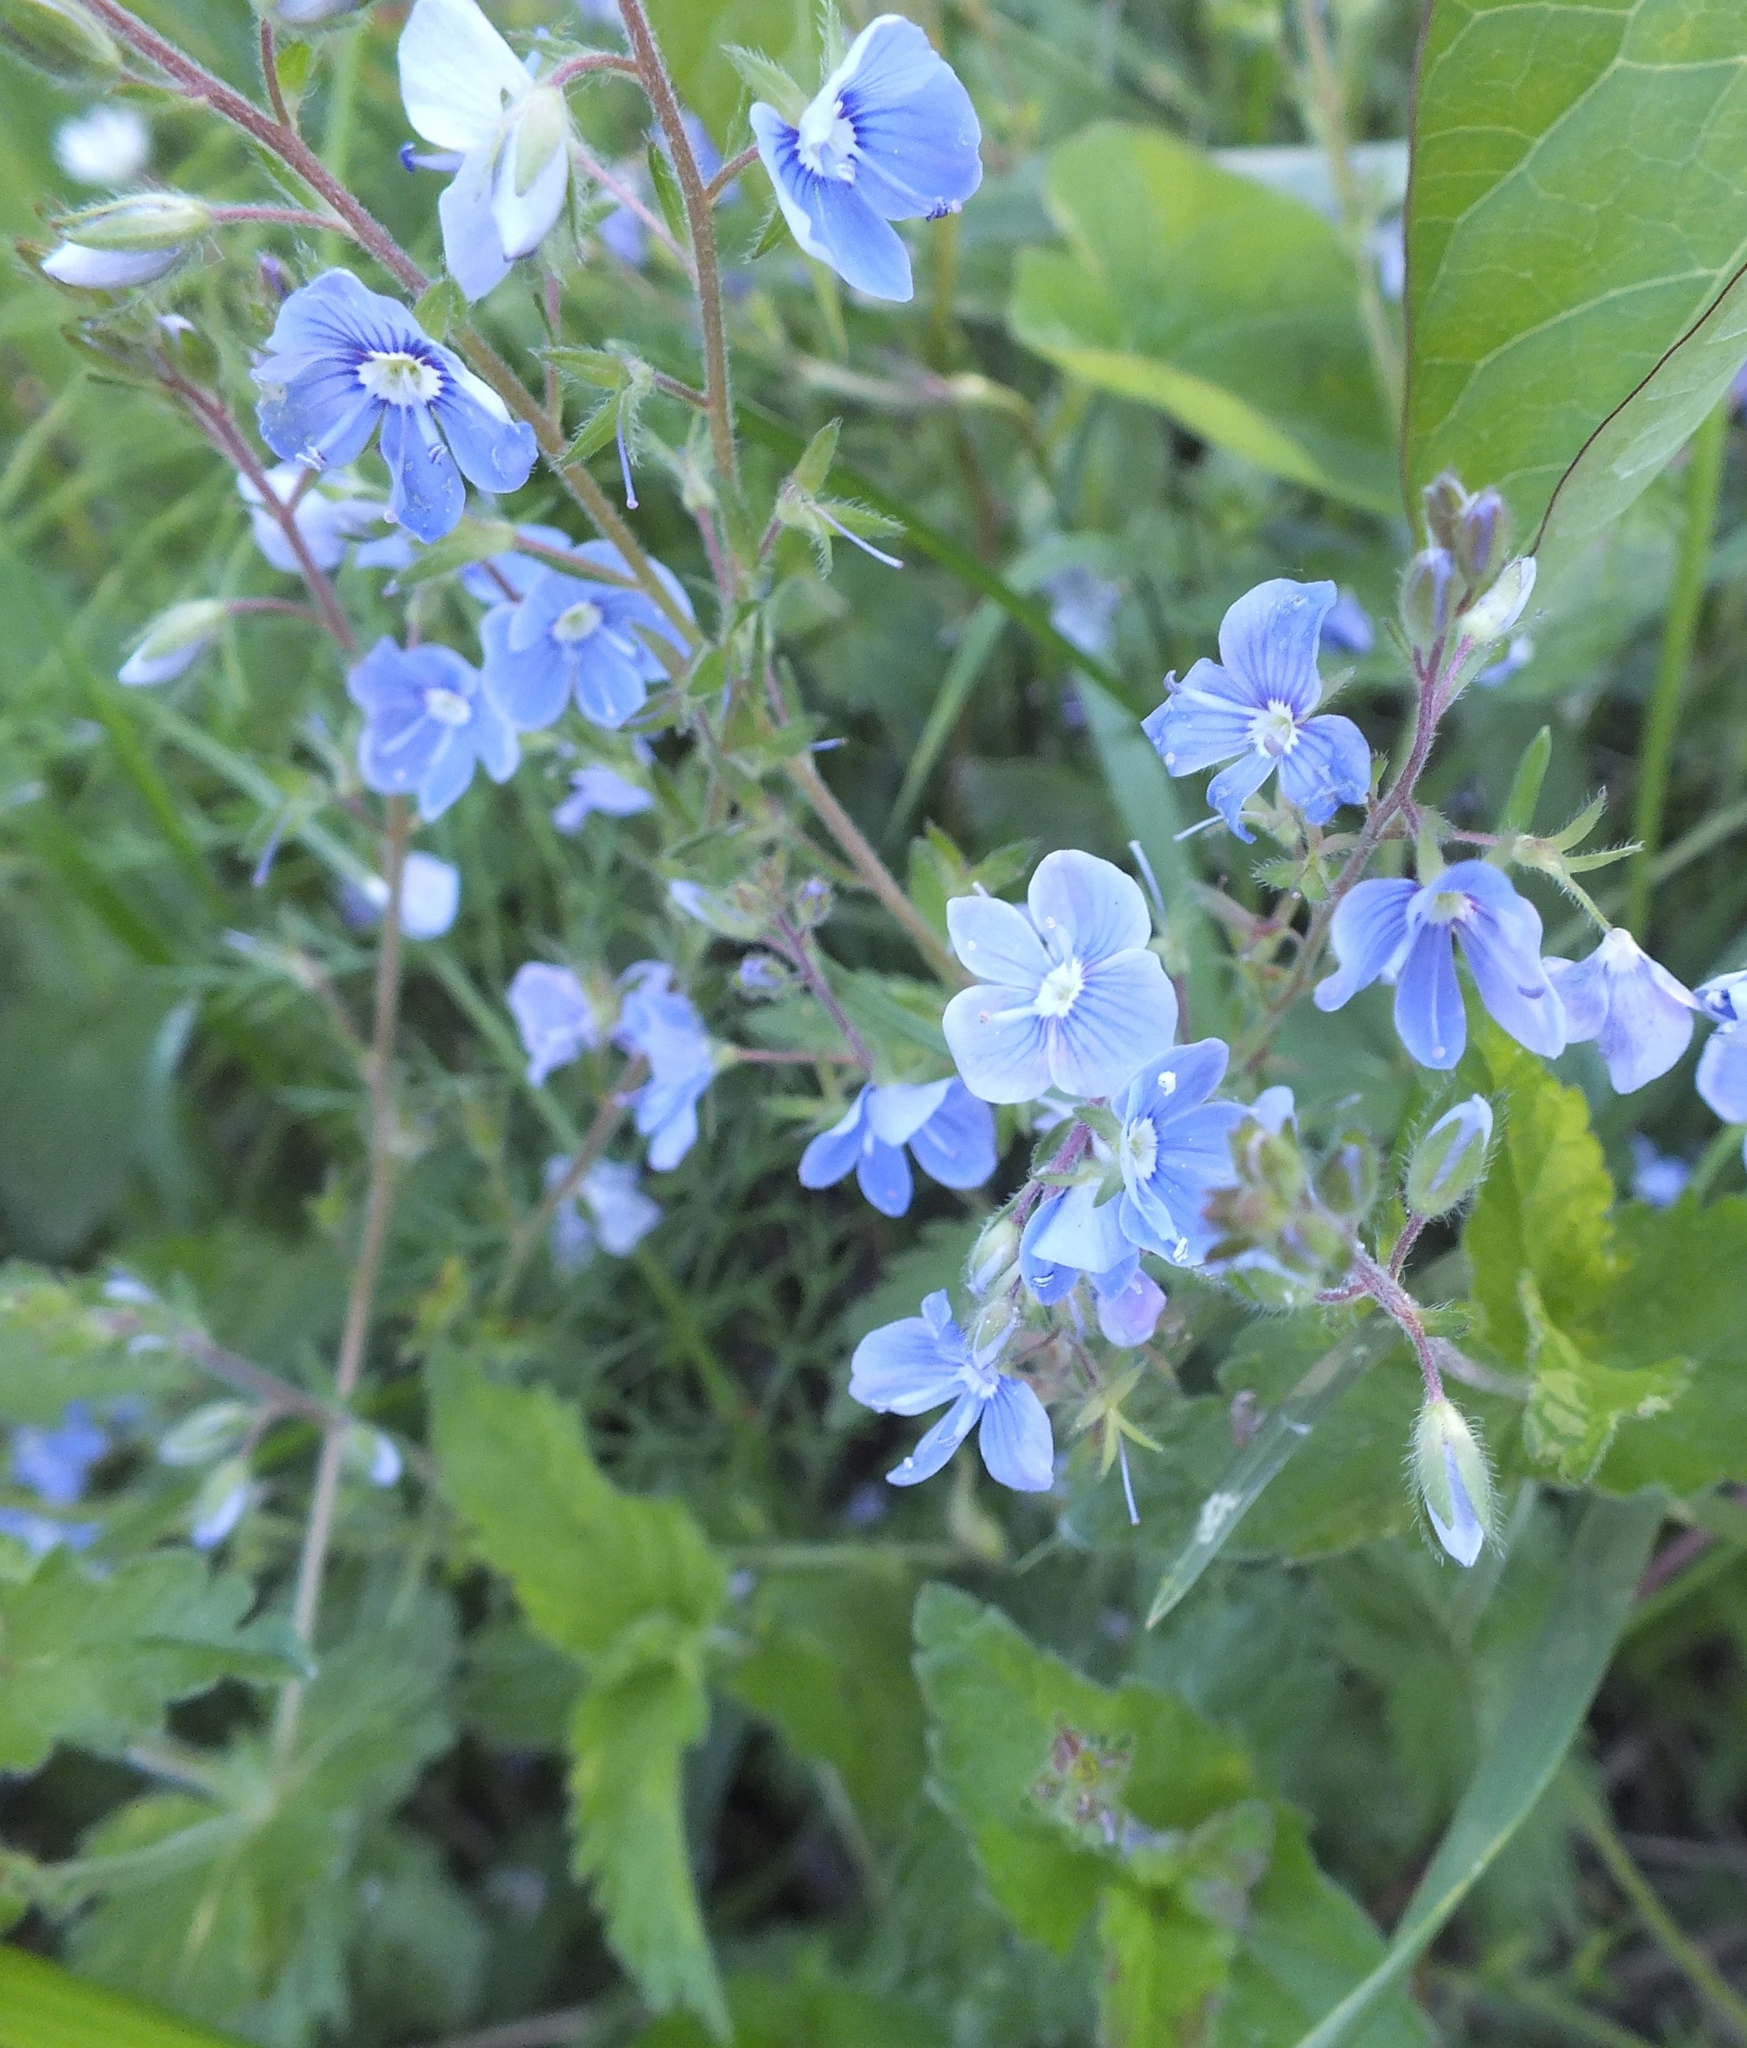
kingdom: Plantae
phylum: Tracheophyta
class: Magnoliopsida
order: Lamiales
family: Plantaginaceae
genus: Veronica
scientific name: Veronica chamaedrys
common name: Germander speedwell
